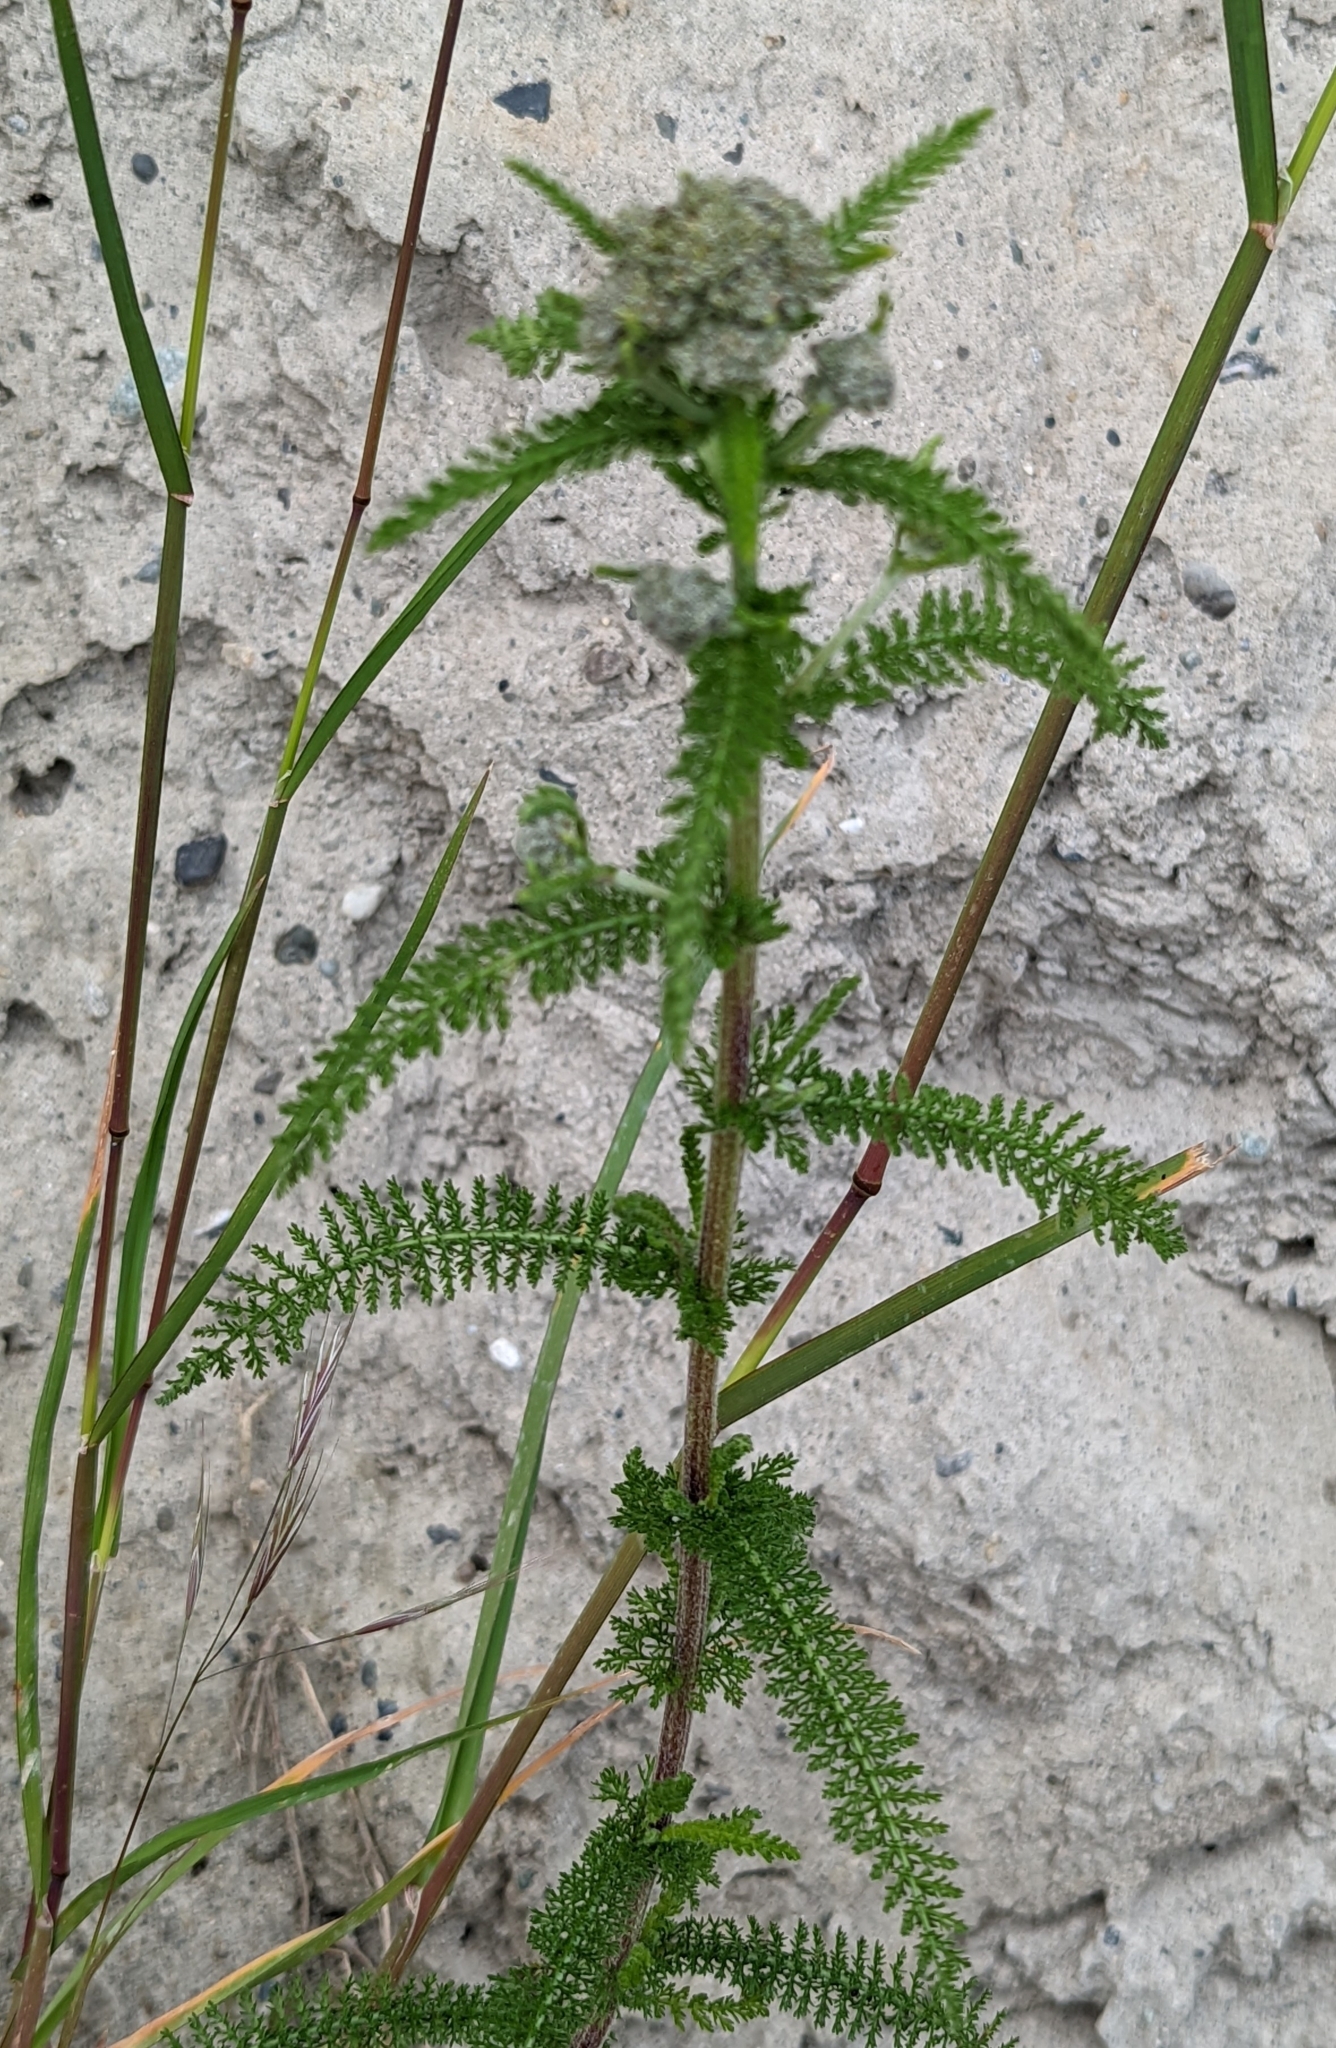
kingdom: Plantae
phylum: Tracheophyta
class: Magnoliopsida
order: Asterales
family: Asteraceae
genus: Achillea
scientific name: Achillea millefolium
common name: Yarrow
